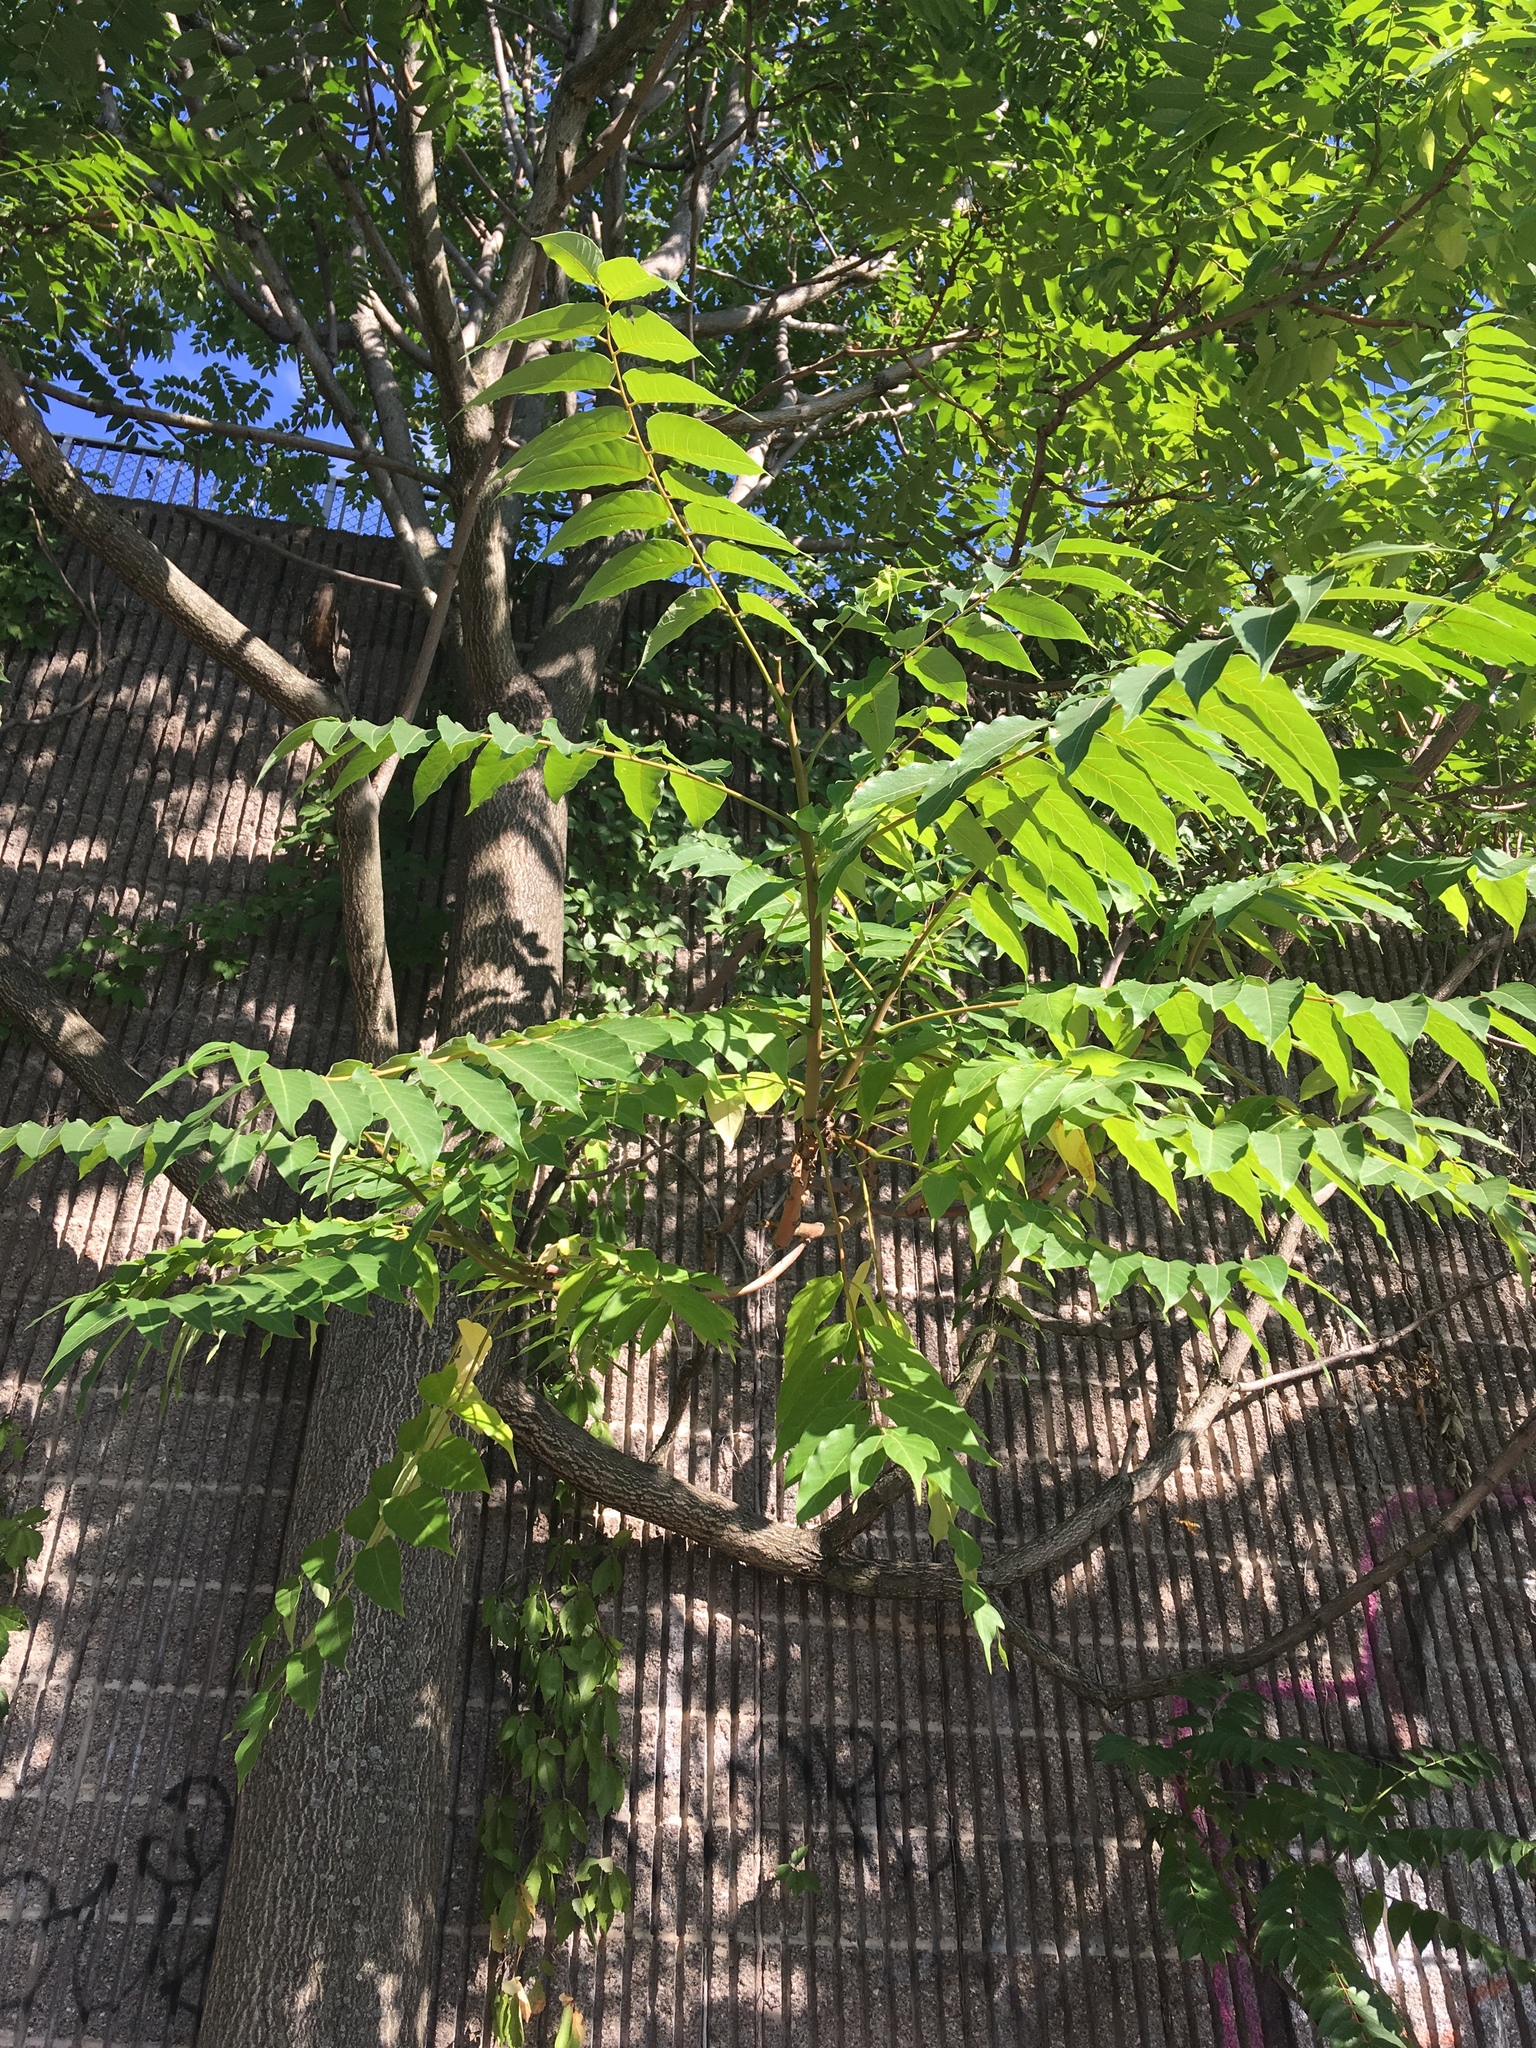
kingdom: Plantae
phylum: Tracheophyta
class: Magnoliopsida
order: Sapindales
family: Simaroubaceae
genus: Ailanthus
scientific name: Ailanthus altissima
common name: Tree-of-heaven
